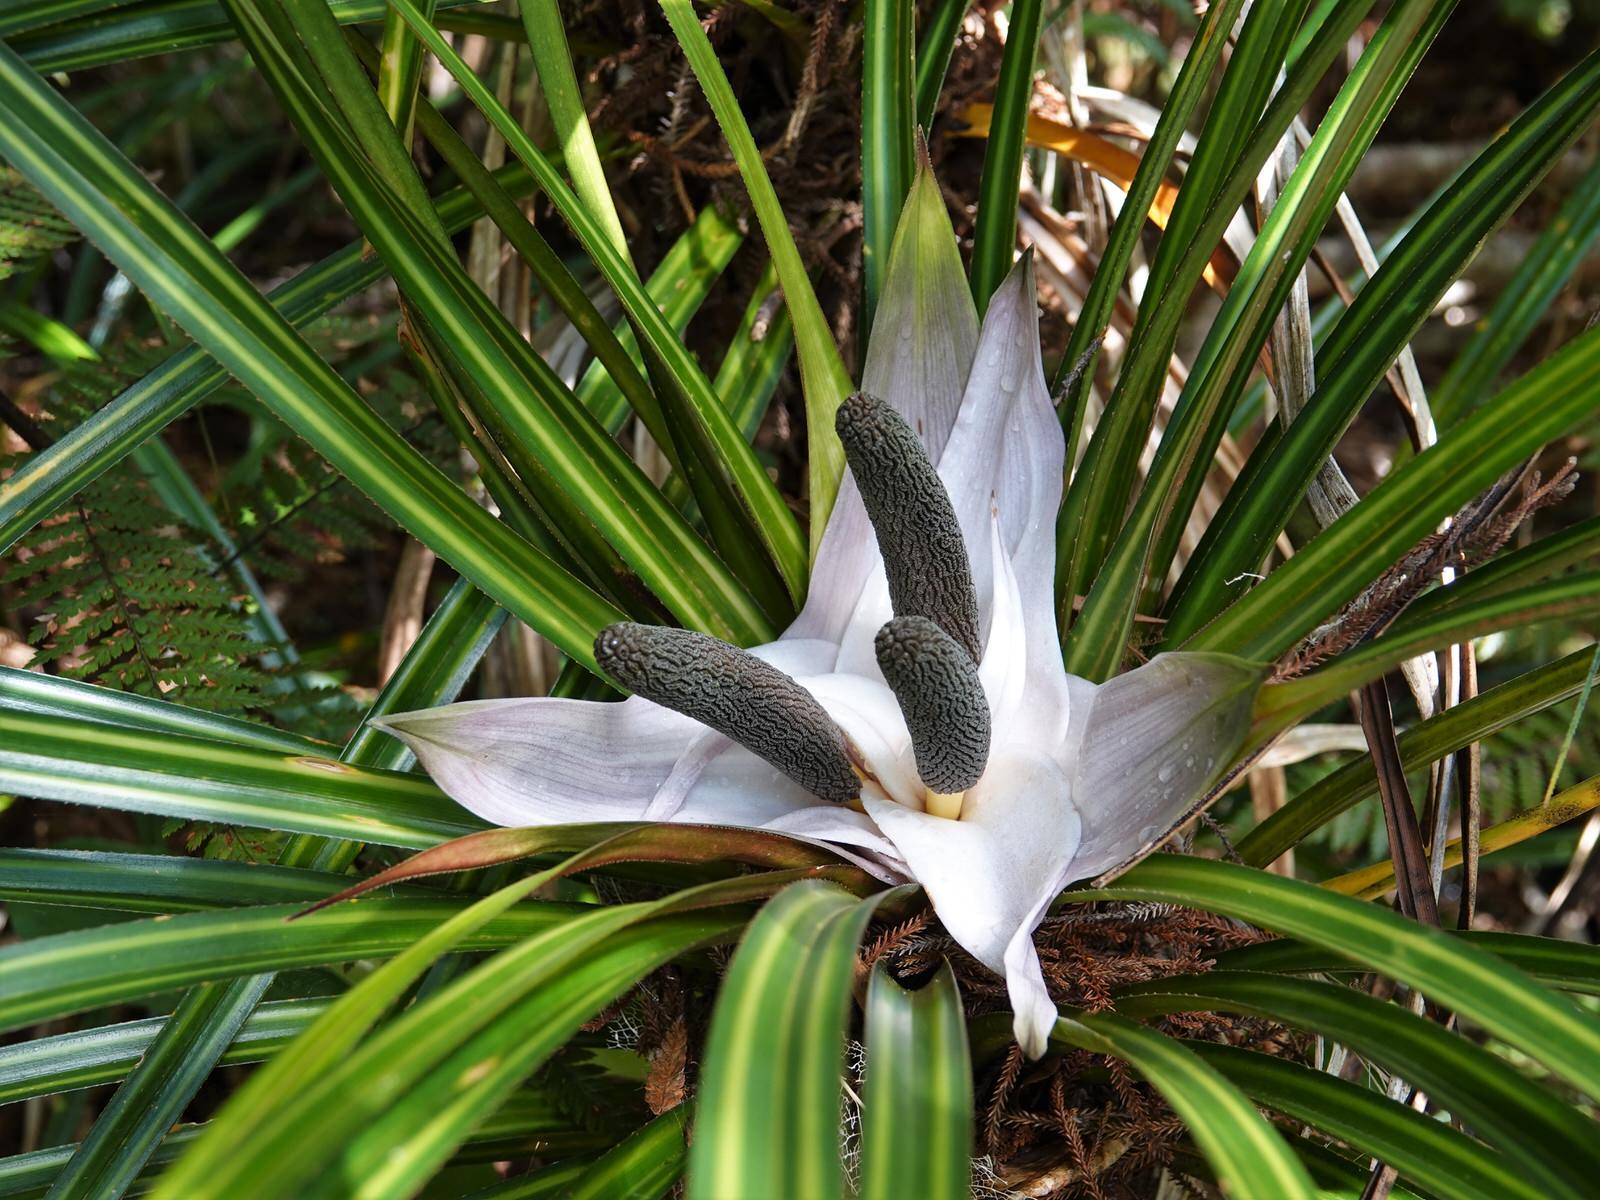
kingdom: Plantae
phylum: Tracheophyta
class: Liliopsida
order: Pandanales
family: Pandanaceae
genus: Freycinetia
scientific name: Freycinetia banksii
